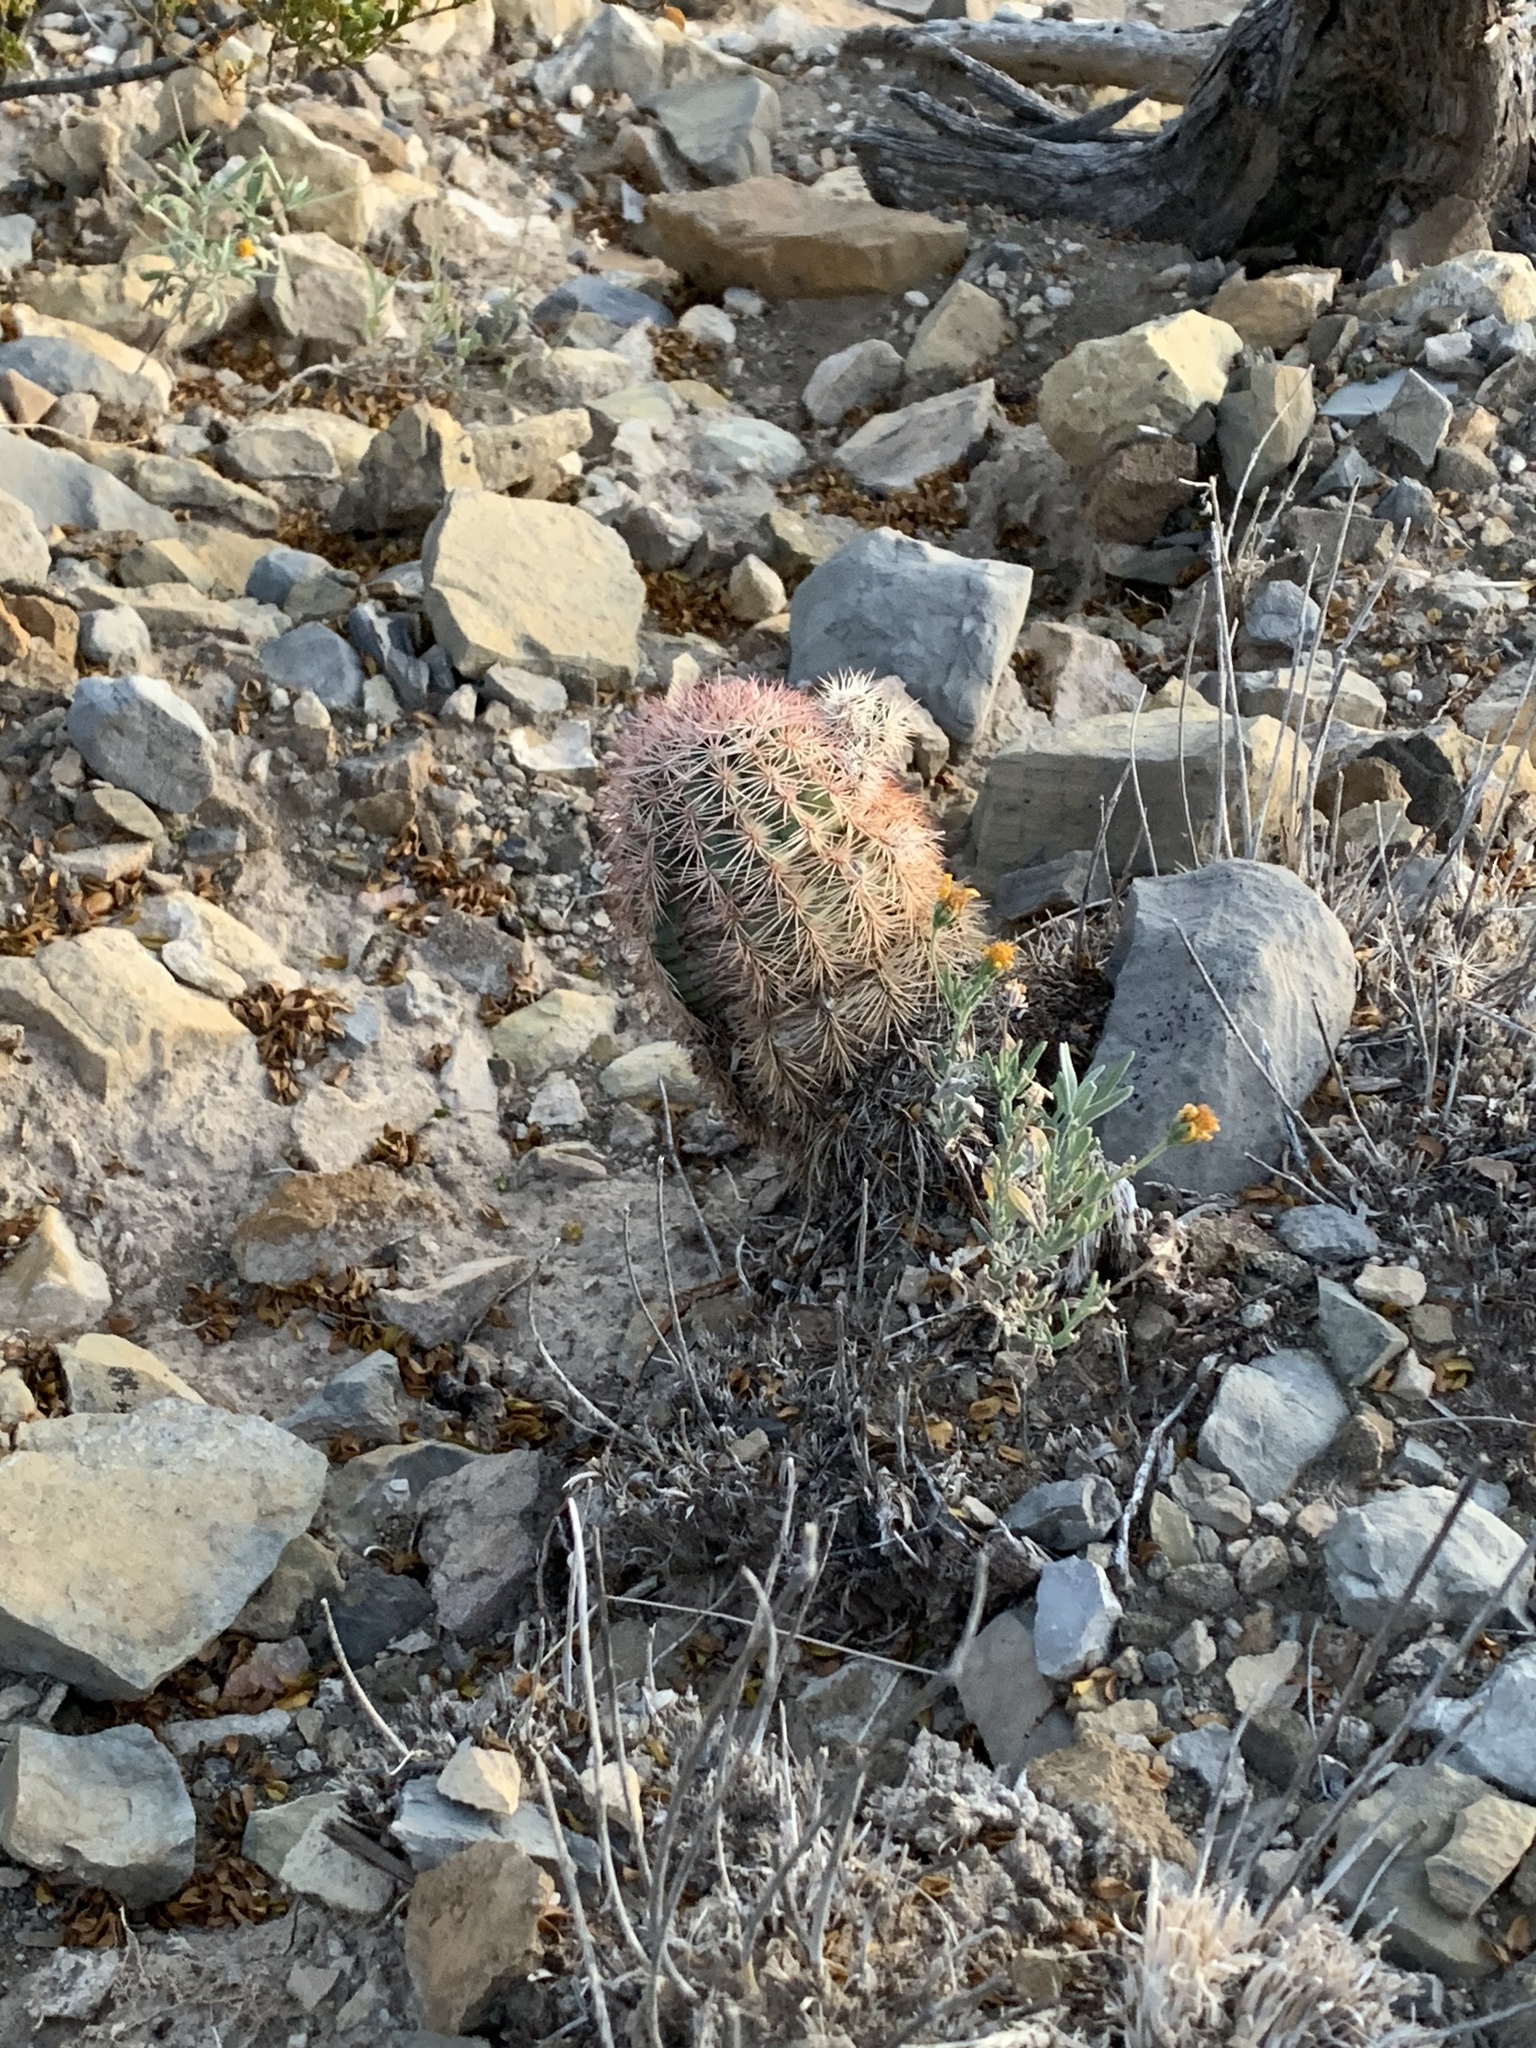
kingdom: Plantae
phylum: Tracheophyta
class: Magnoliopsida
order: Caryophyllales
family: Cactaceae
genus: Echinocereus
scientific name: Echinocereus dasyacanthus
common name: Spiny hedgehog cactus
